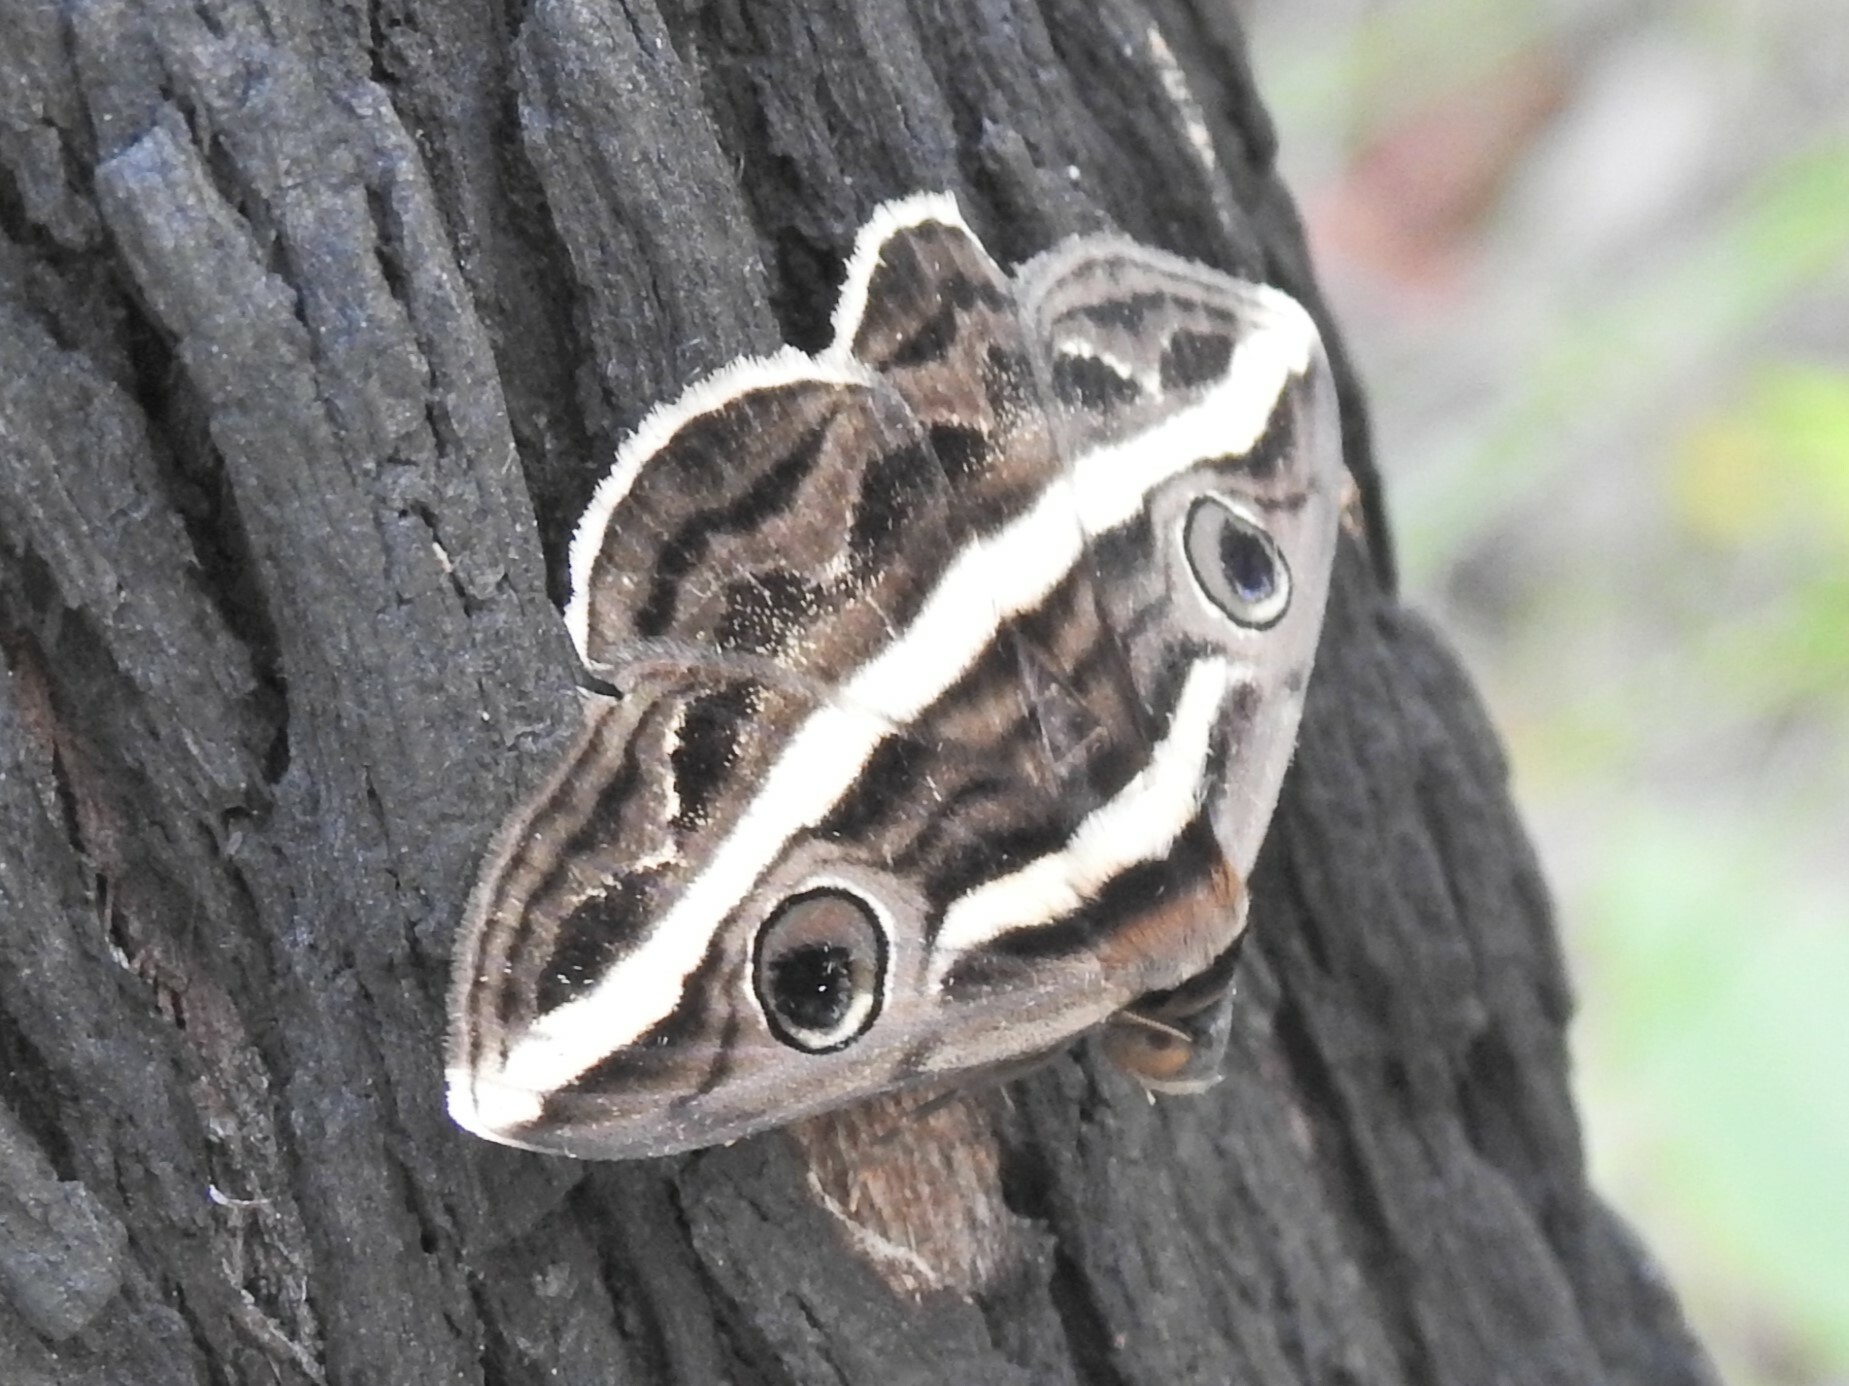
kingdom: Animalia
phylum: Arthropoda
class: Insecta
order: Lepidoptera
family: Erebidae
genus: Donuca
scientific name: Donuca rubropicta
